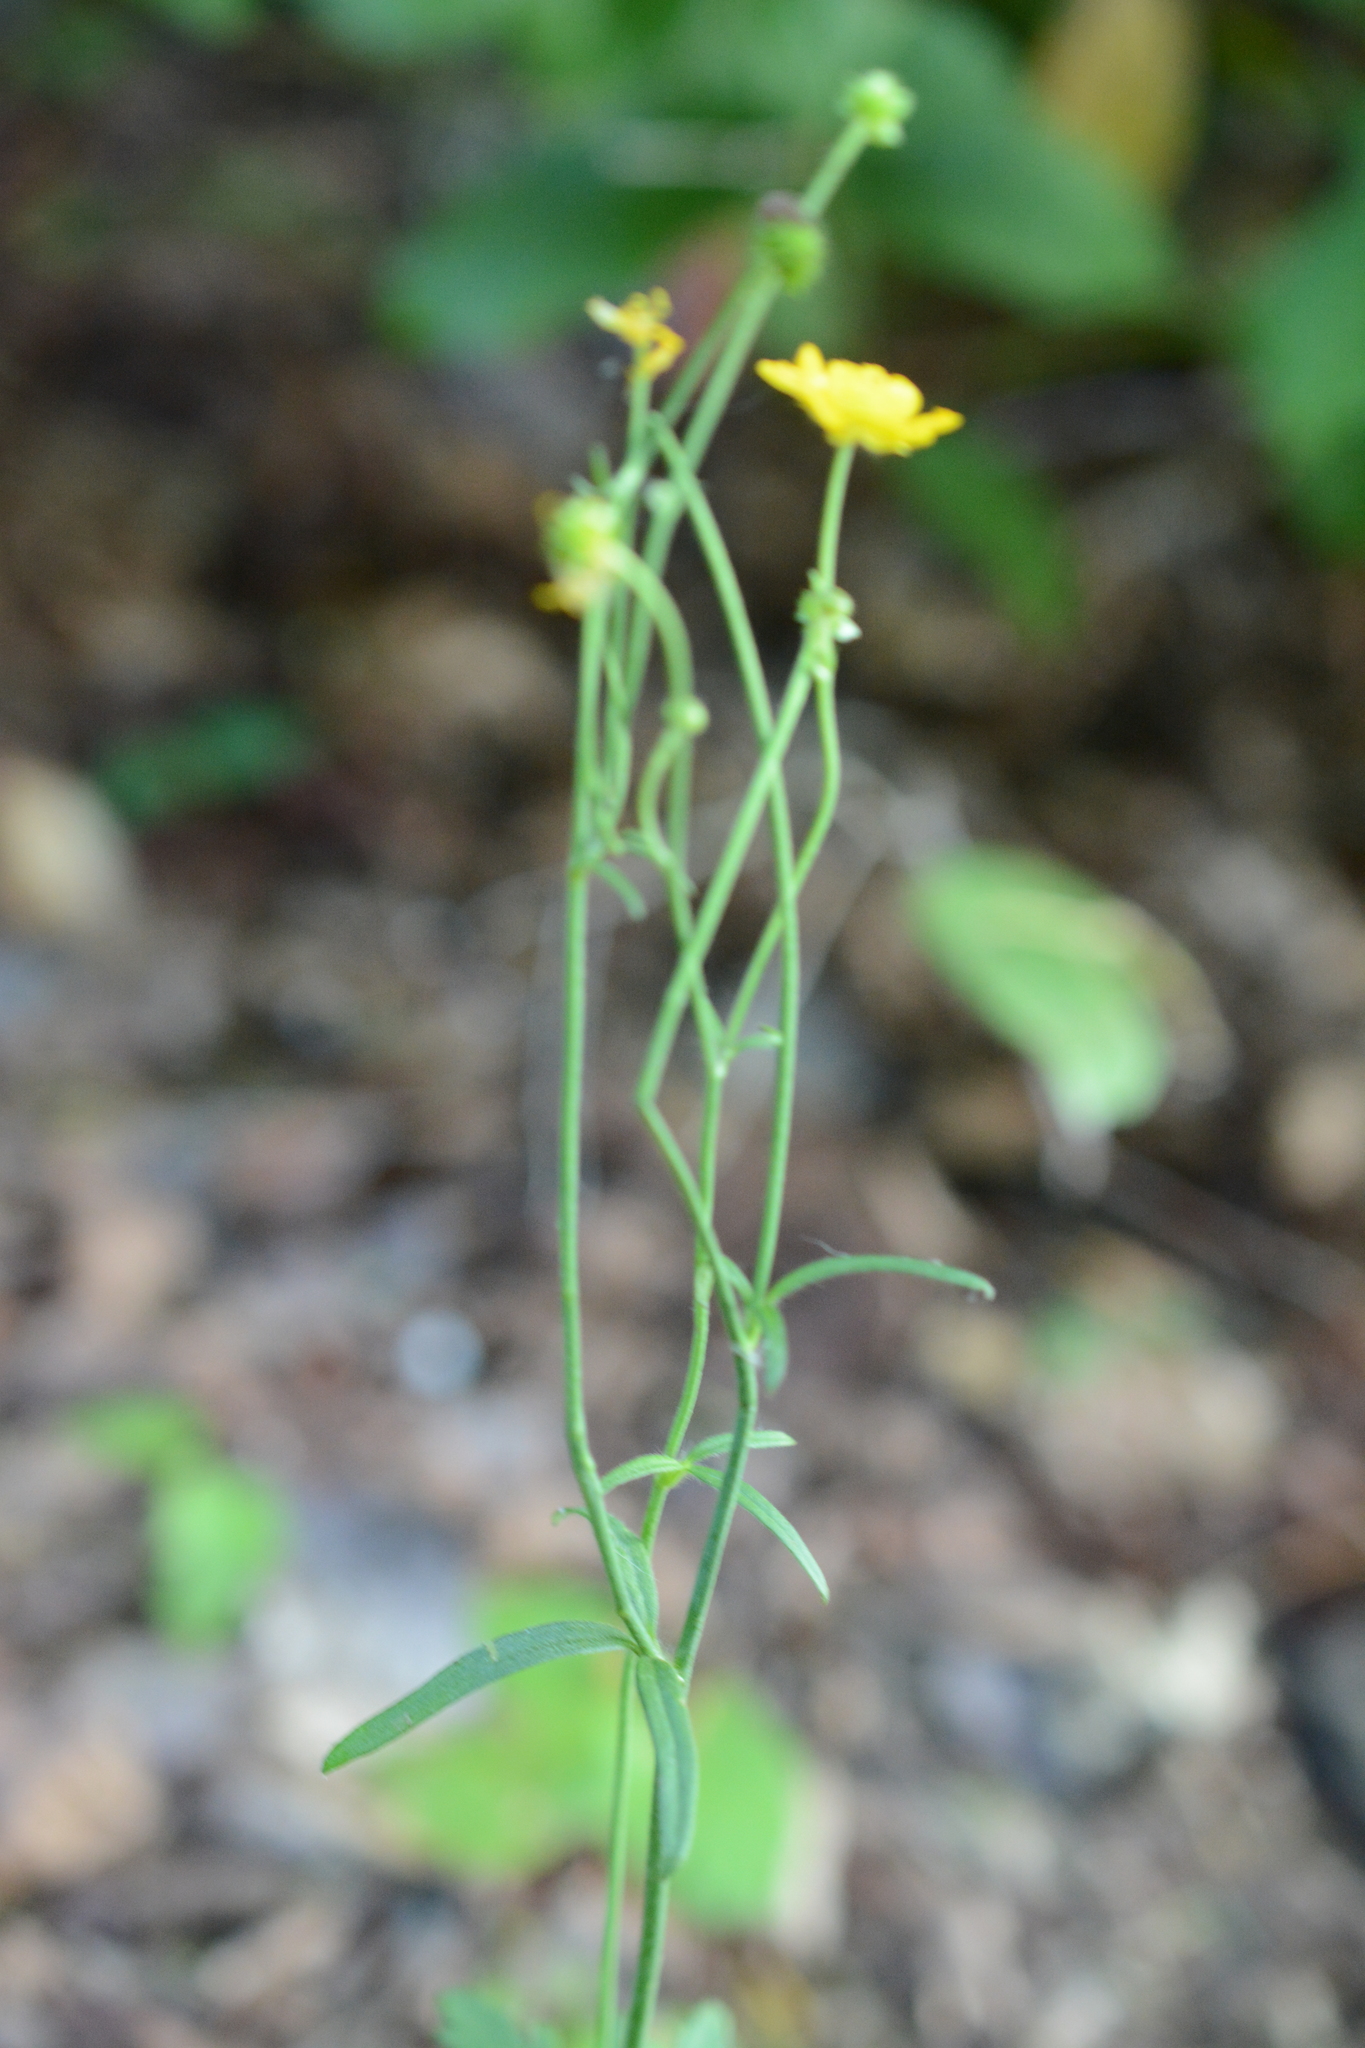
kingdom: Plantae
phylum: Tracheophyta
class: Magnoliopsida
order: Ranunculales
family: Ranunculaceae
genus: Ranunculus
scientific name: Ranunculus acris
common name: Meadow buttercup
